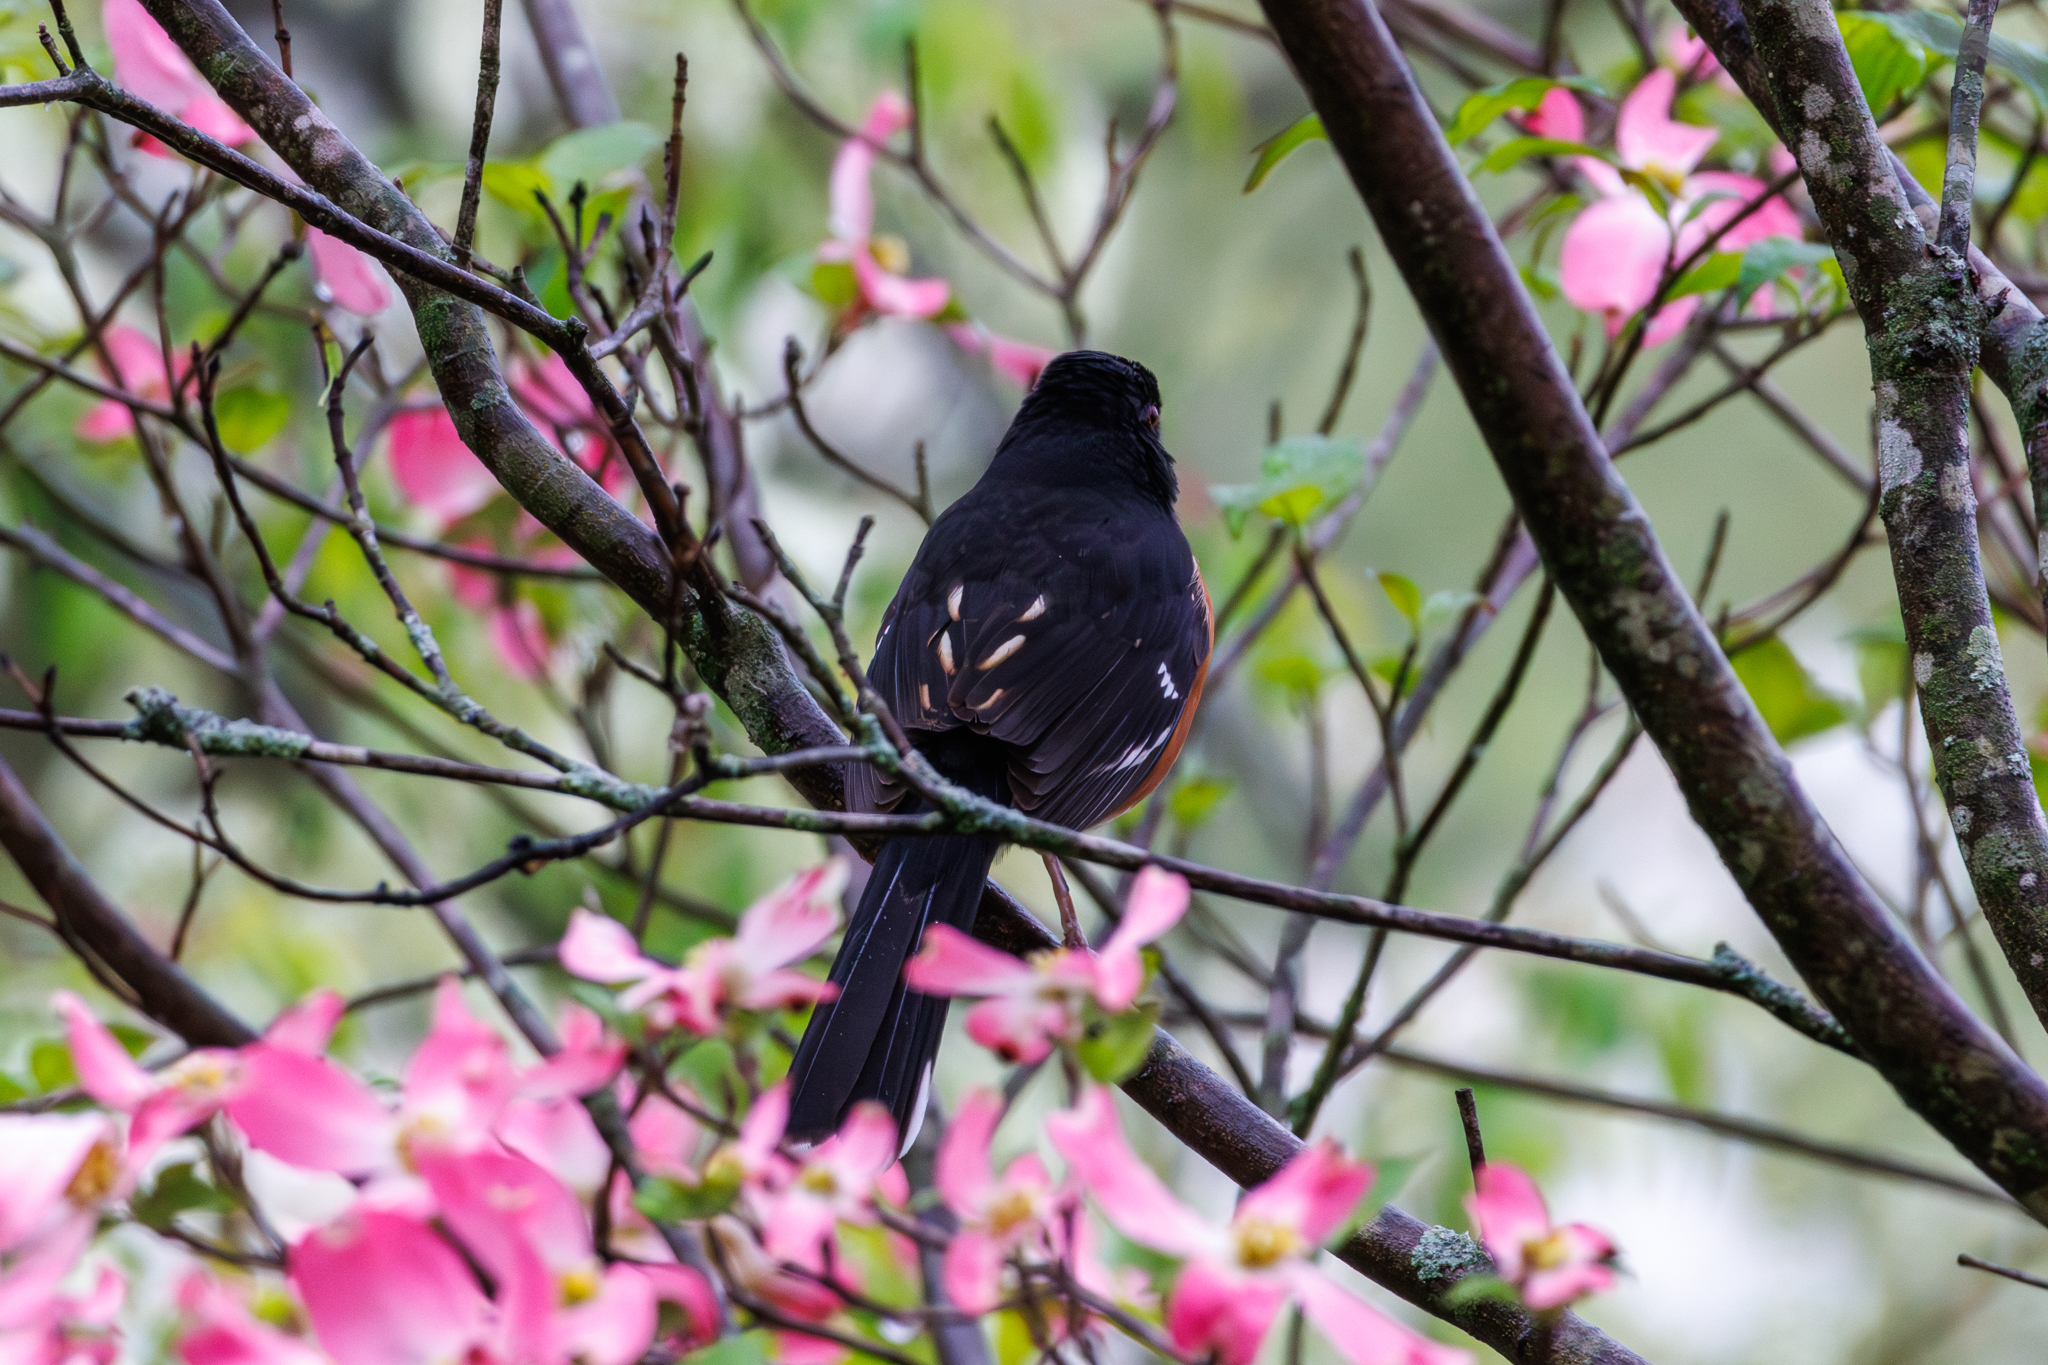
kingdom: Animalia
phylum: Chordata
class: Aves
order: Passeriformes
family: Passerellidae
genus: Pipilo
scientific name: Pipilo erythrophthalmus
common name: Eastern towhee
